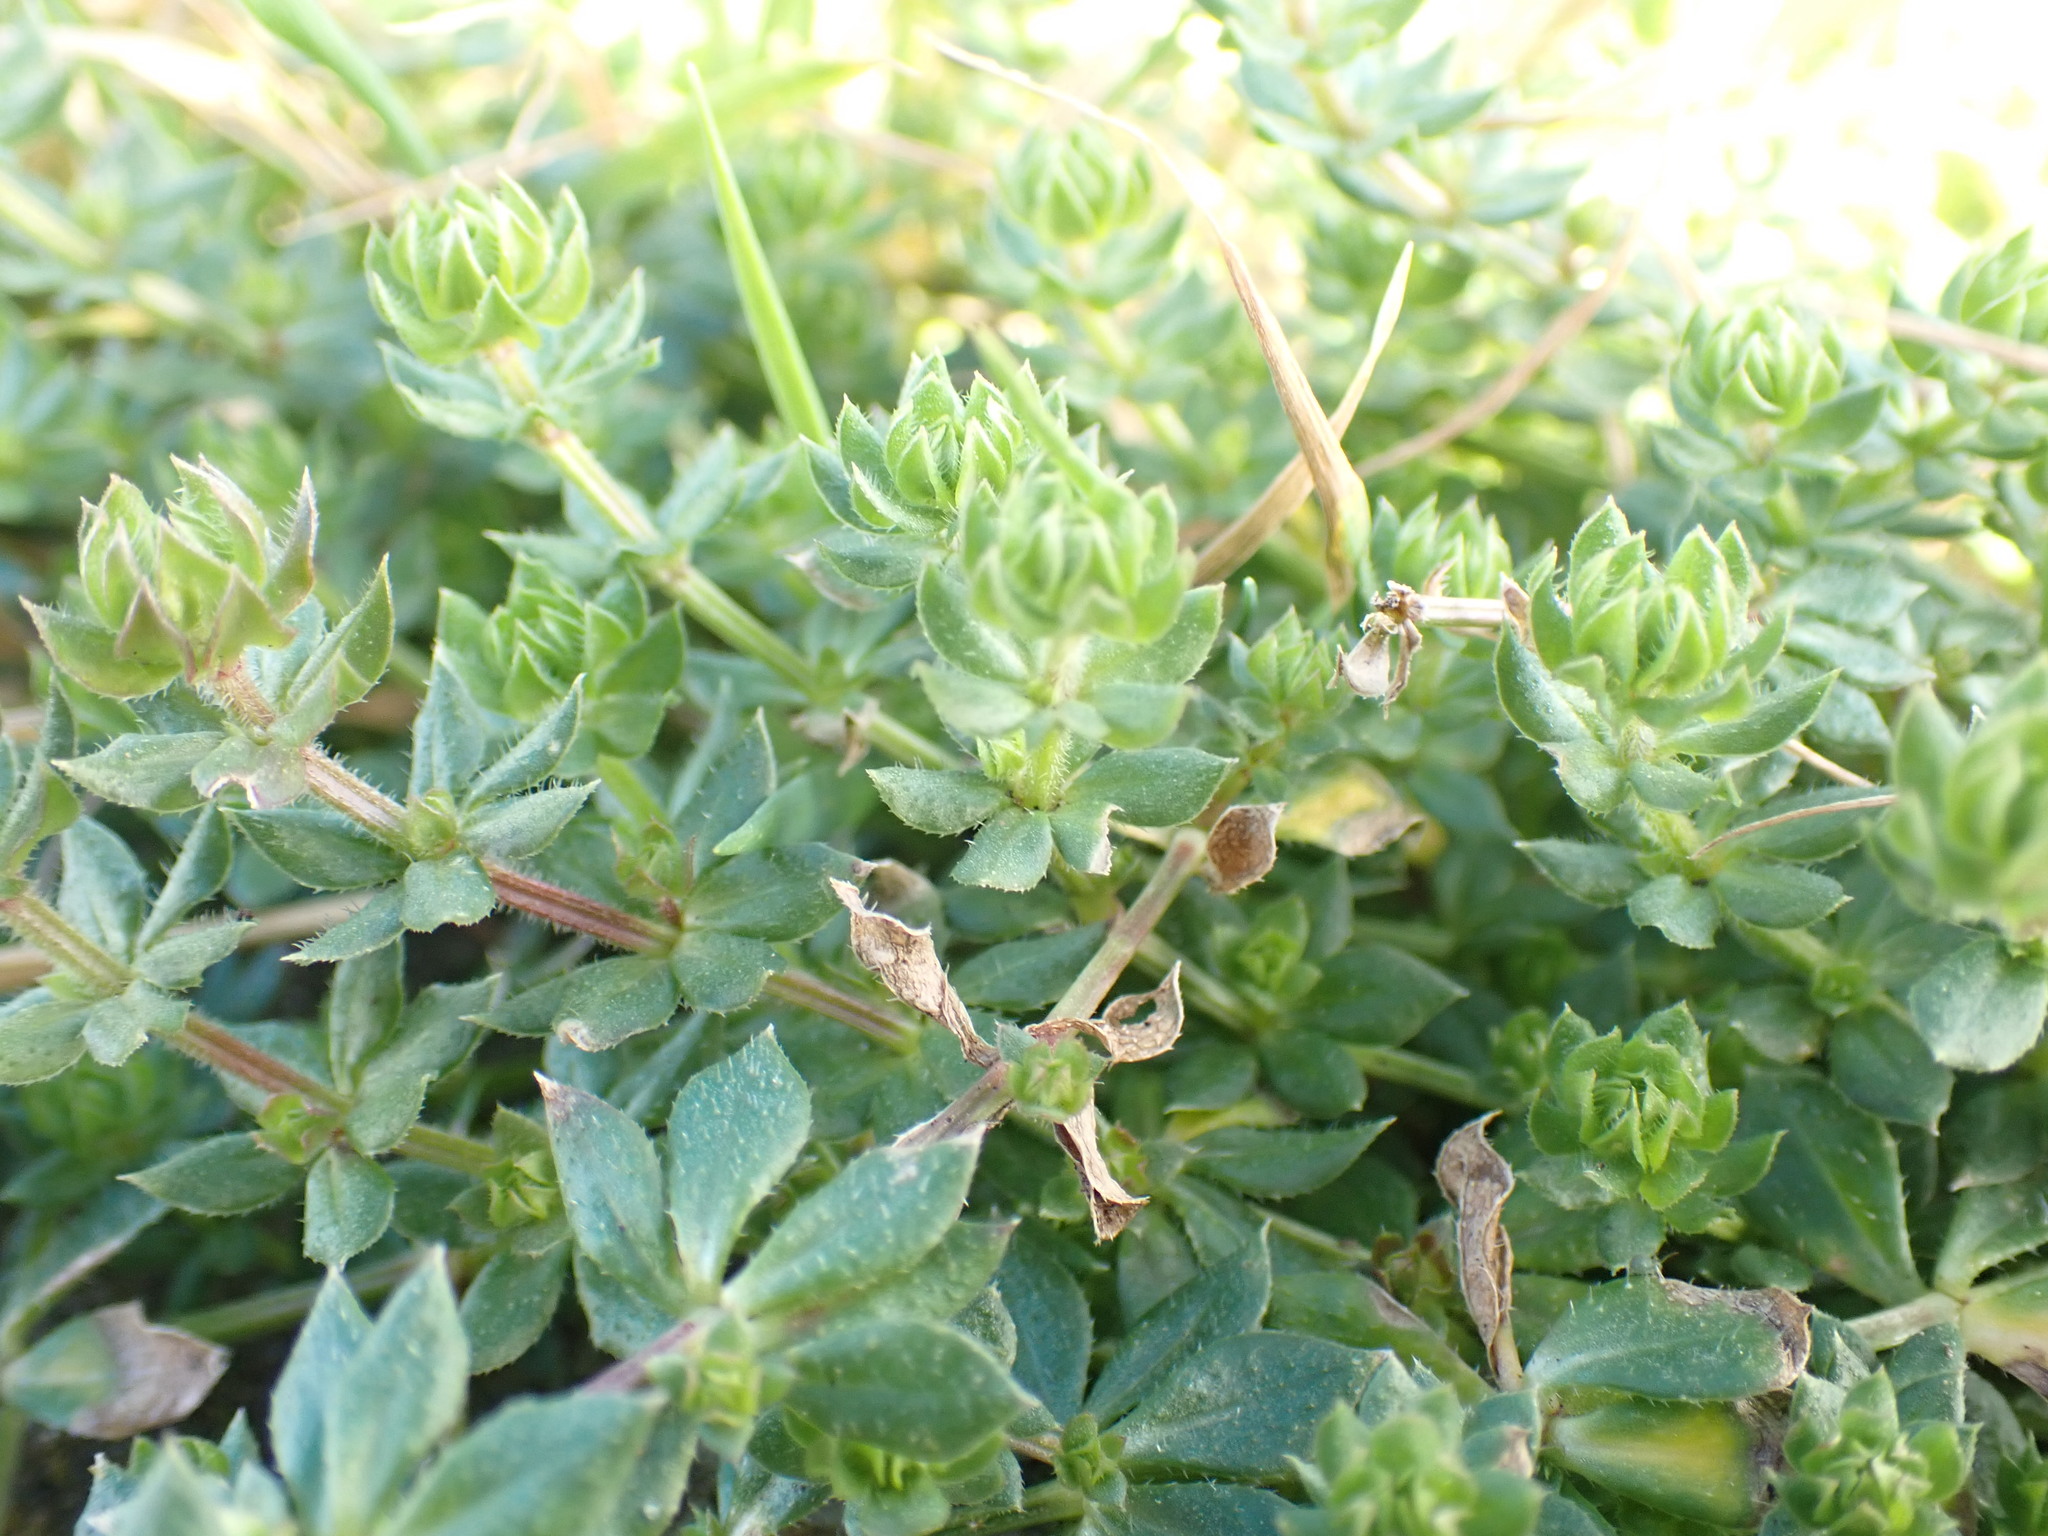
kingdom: Plantae
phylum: Tracheophyta
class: Magnoliopsida
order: Gentianales
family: Rubiaceae
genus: Sherardia
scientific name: Sherardia arvensis
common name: Field madder
